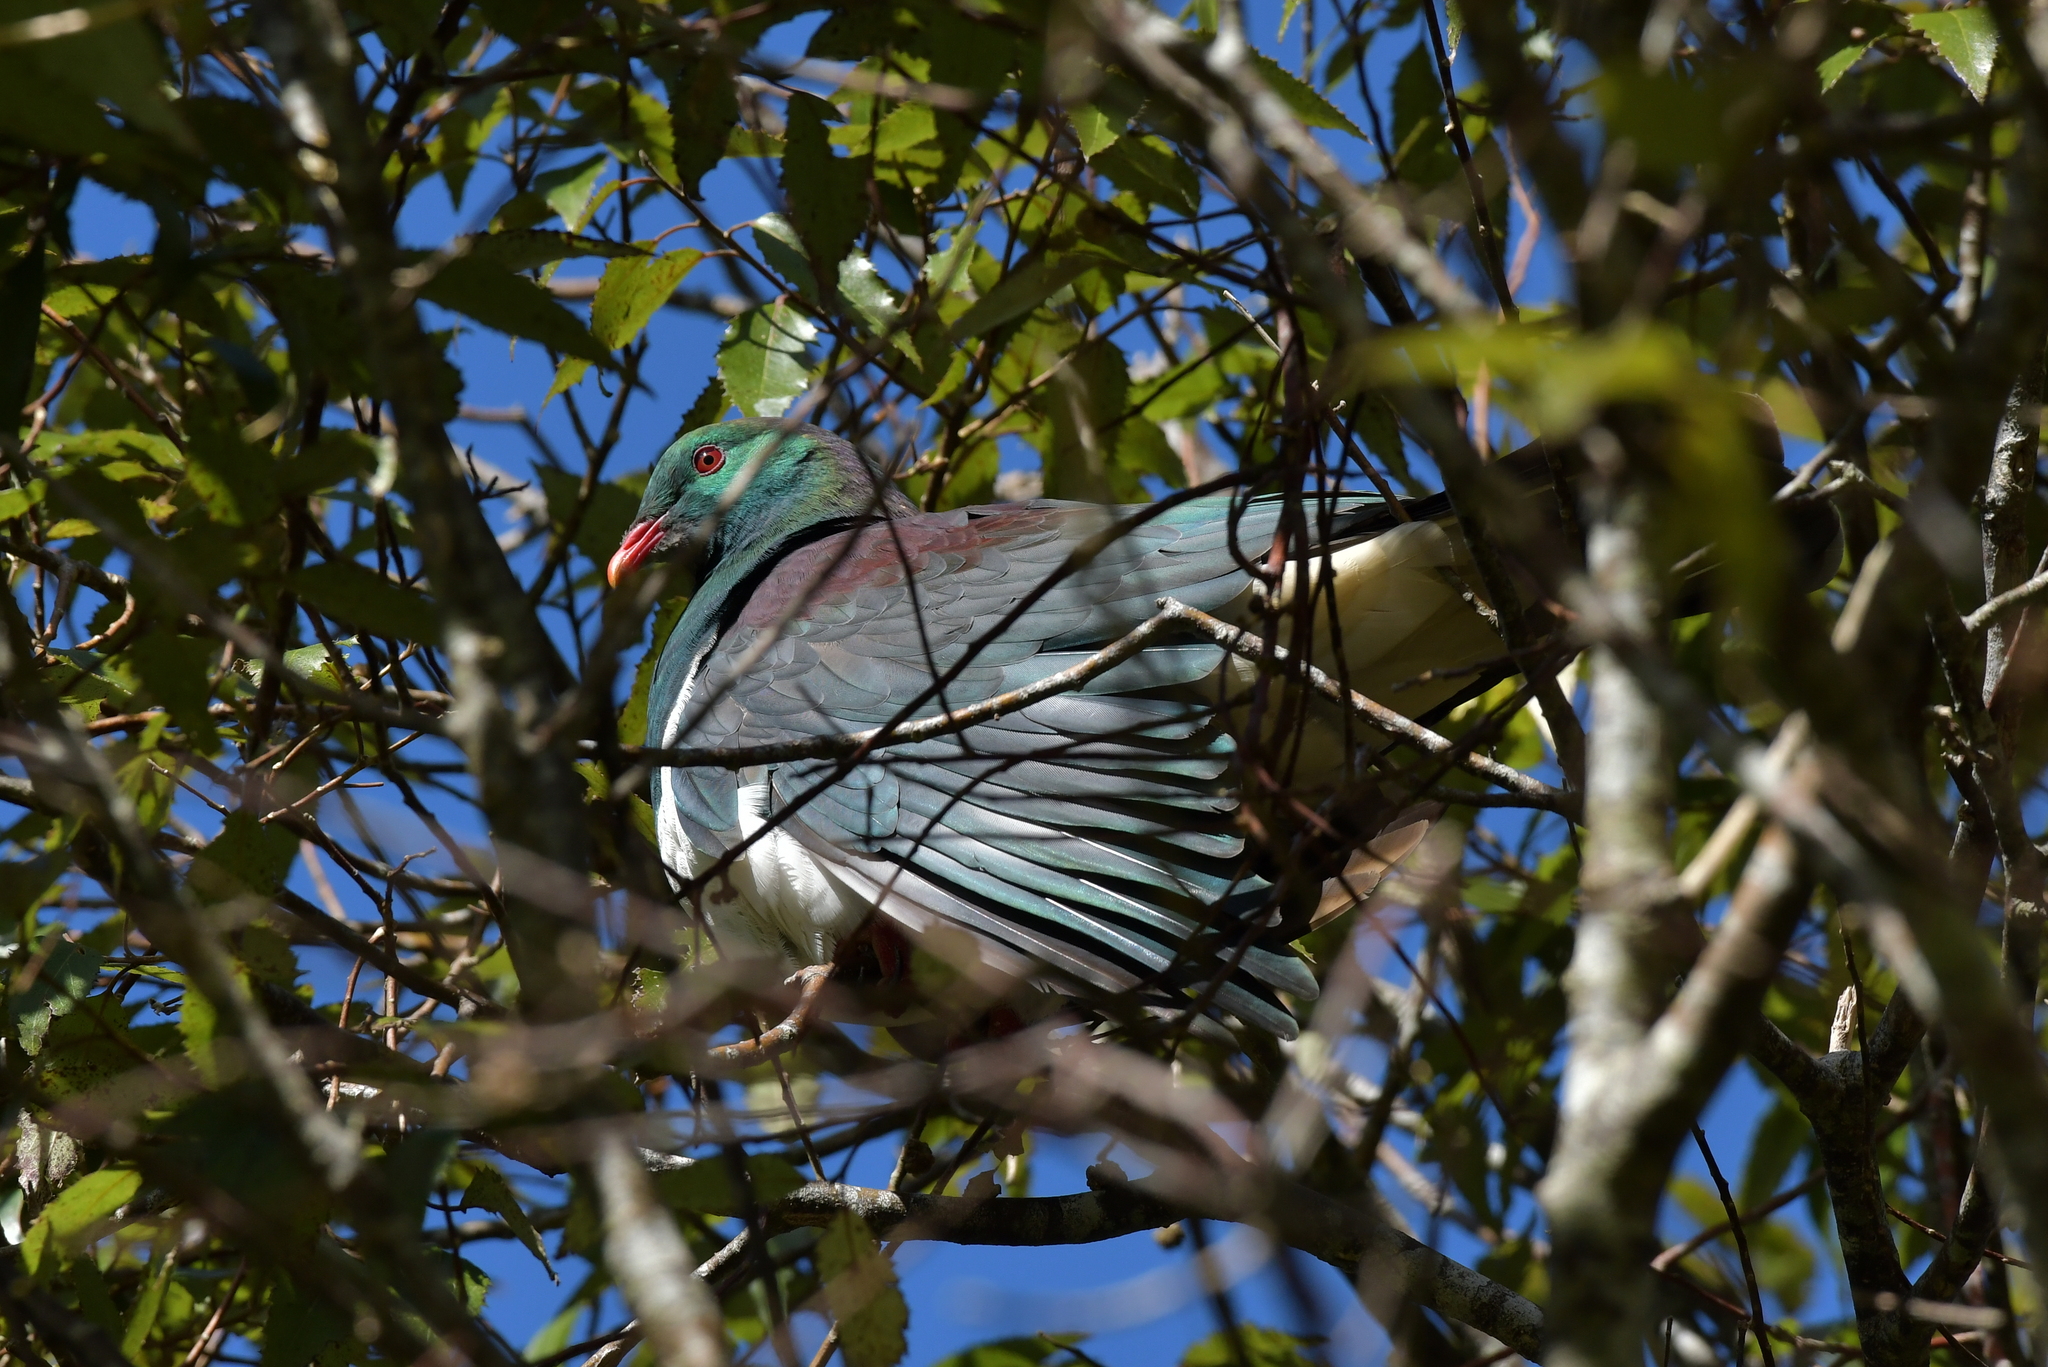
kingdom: Animalia
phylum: Chordata
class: Aves
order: Columbiformes
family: Columbidae
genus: Hemiphaga
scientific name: Hemiphaga novaeseelandiae
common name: New zealand pigeon
